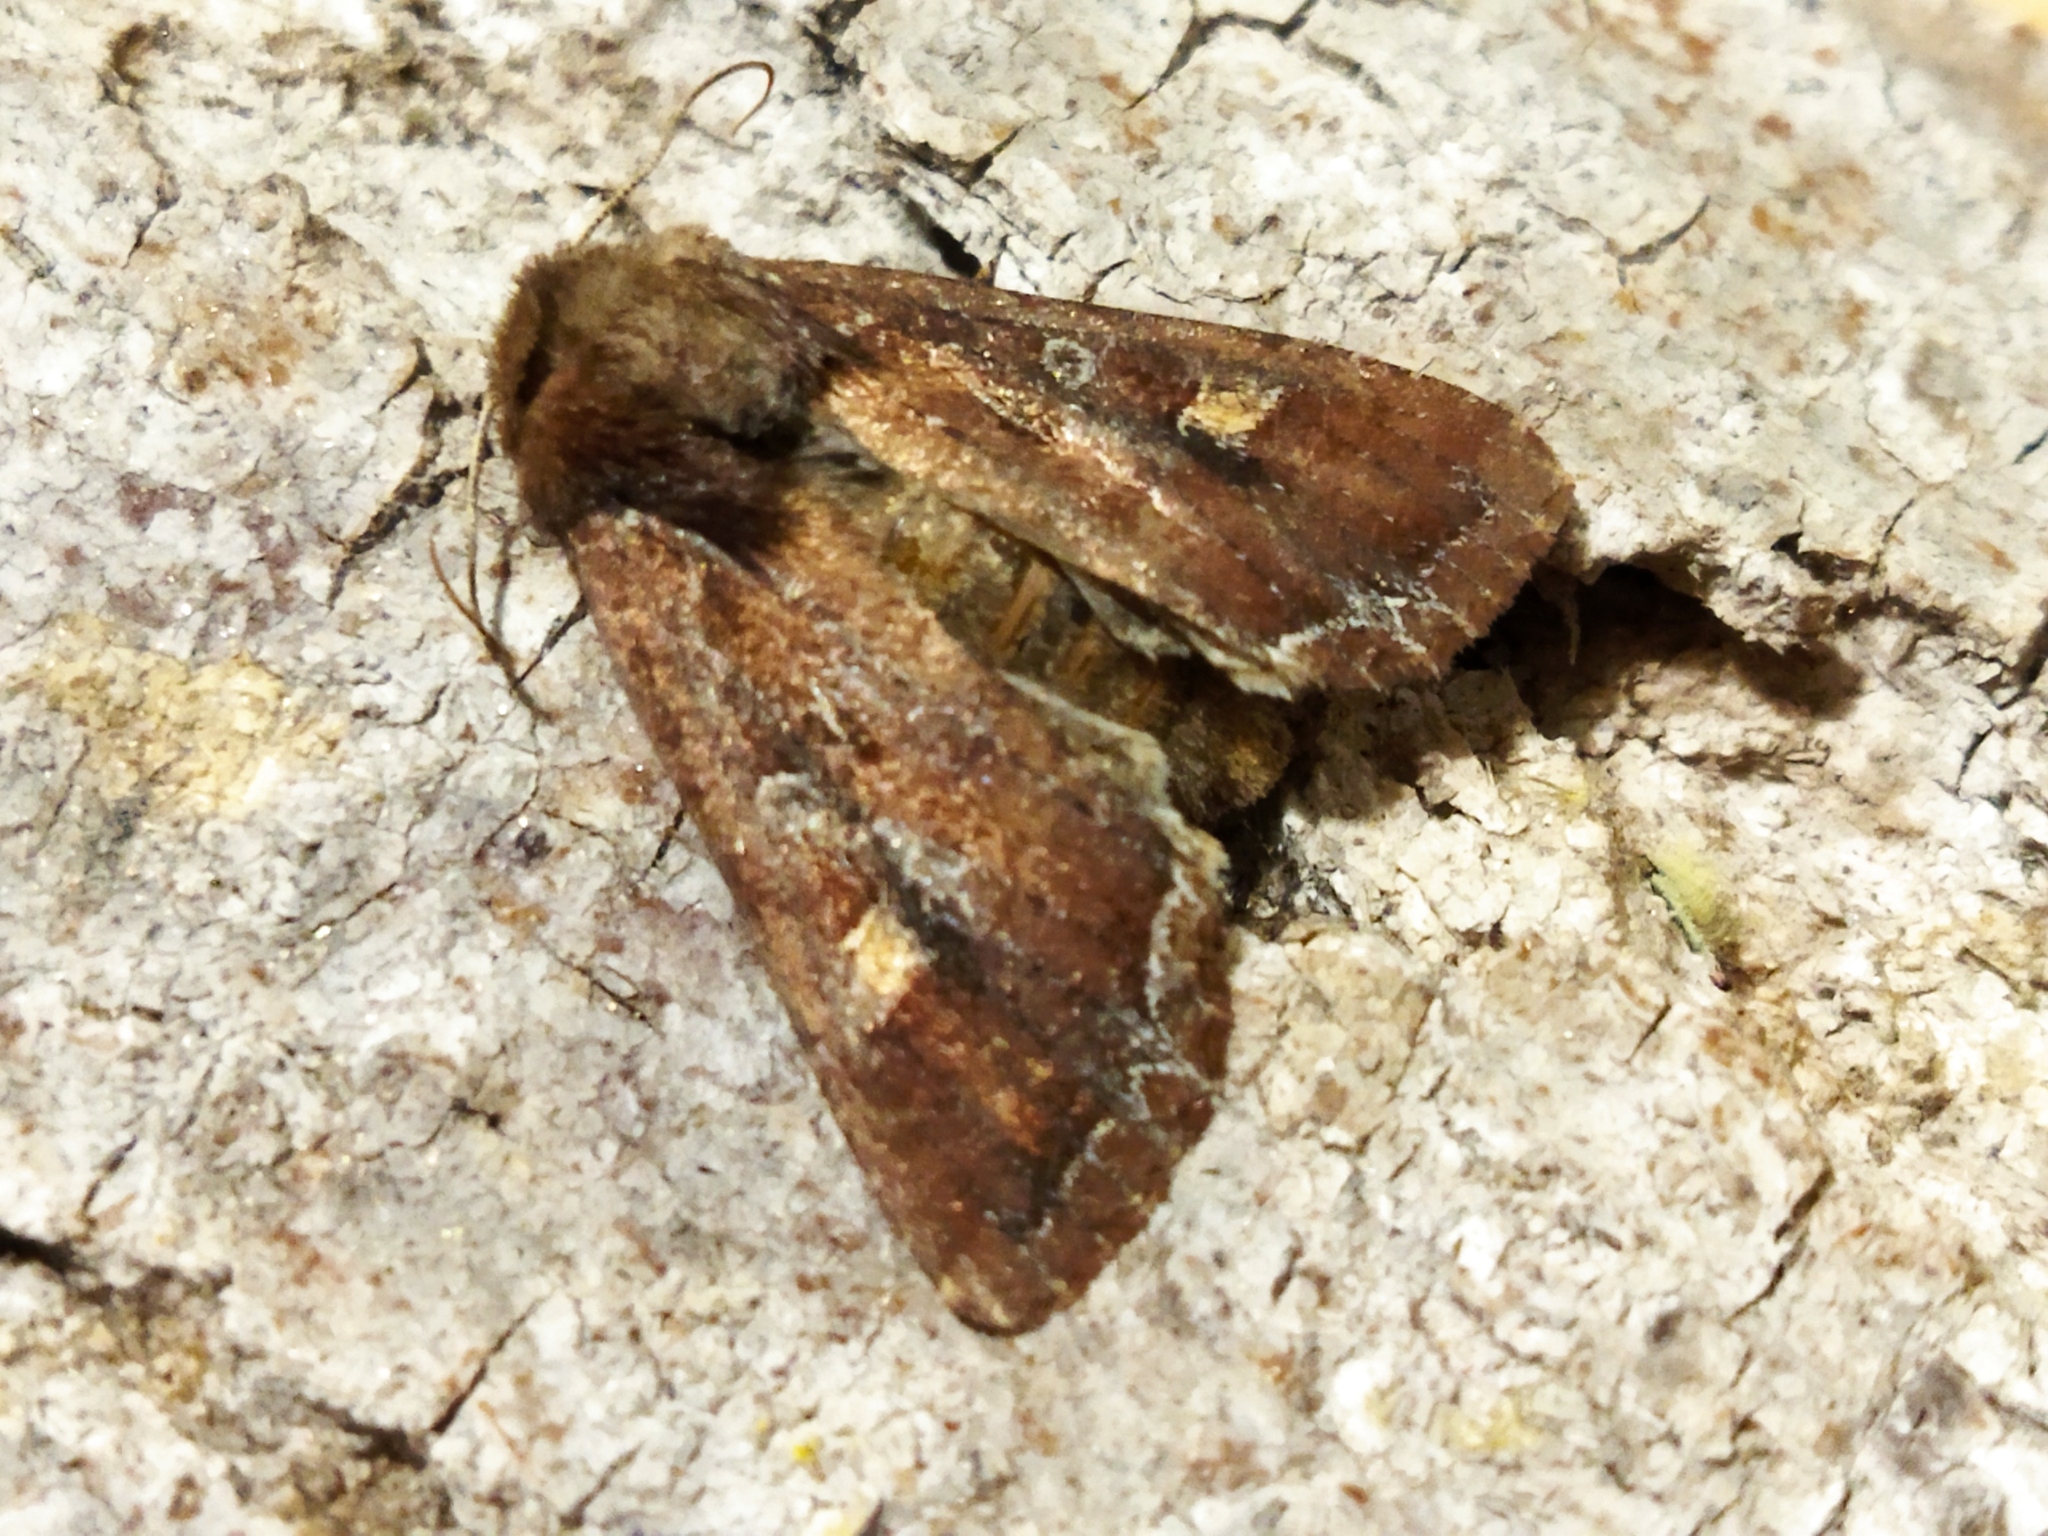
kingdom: Animalia
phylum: Arthropoda
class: Insecta
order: Lepidoptera
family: Noctuidae
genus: Lacanobia
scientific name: Lacanobia oleracea
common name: Bright-line brown-eye
